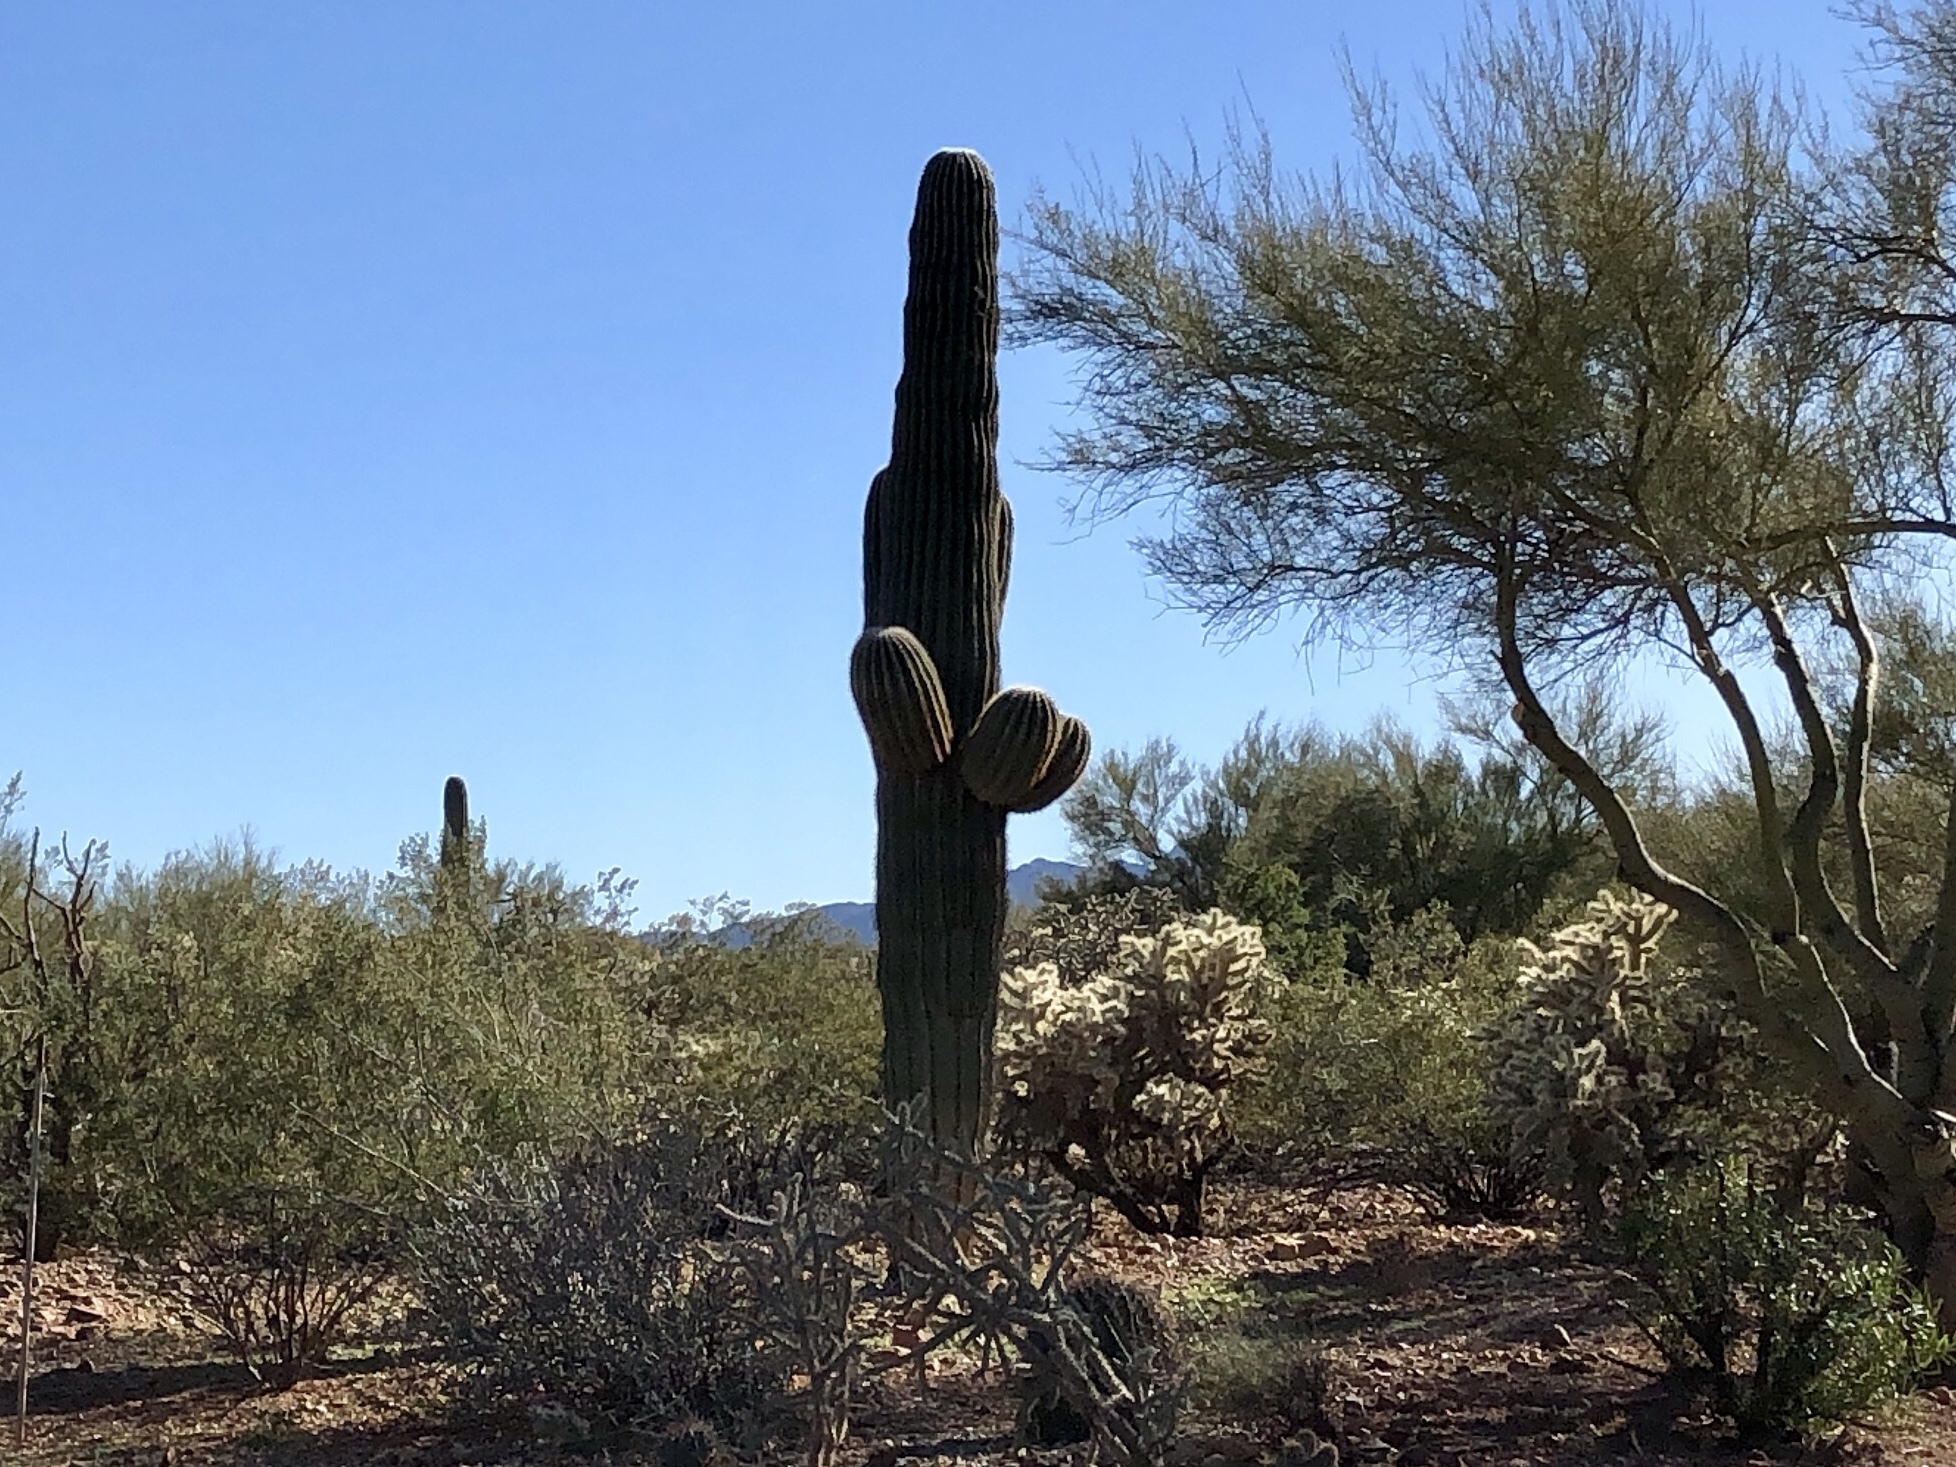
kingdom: Plantae
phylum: Tracheophyta
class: Magnoliopsida
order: Caryophyllales
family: Cactaceae
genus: Carnegiea
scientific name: Carnegiea gigantea
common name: Saguaro
